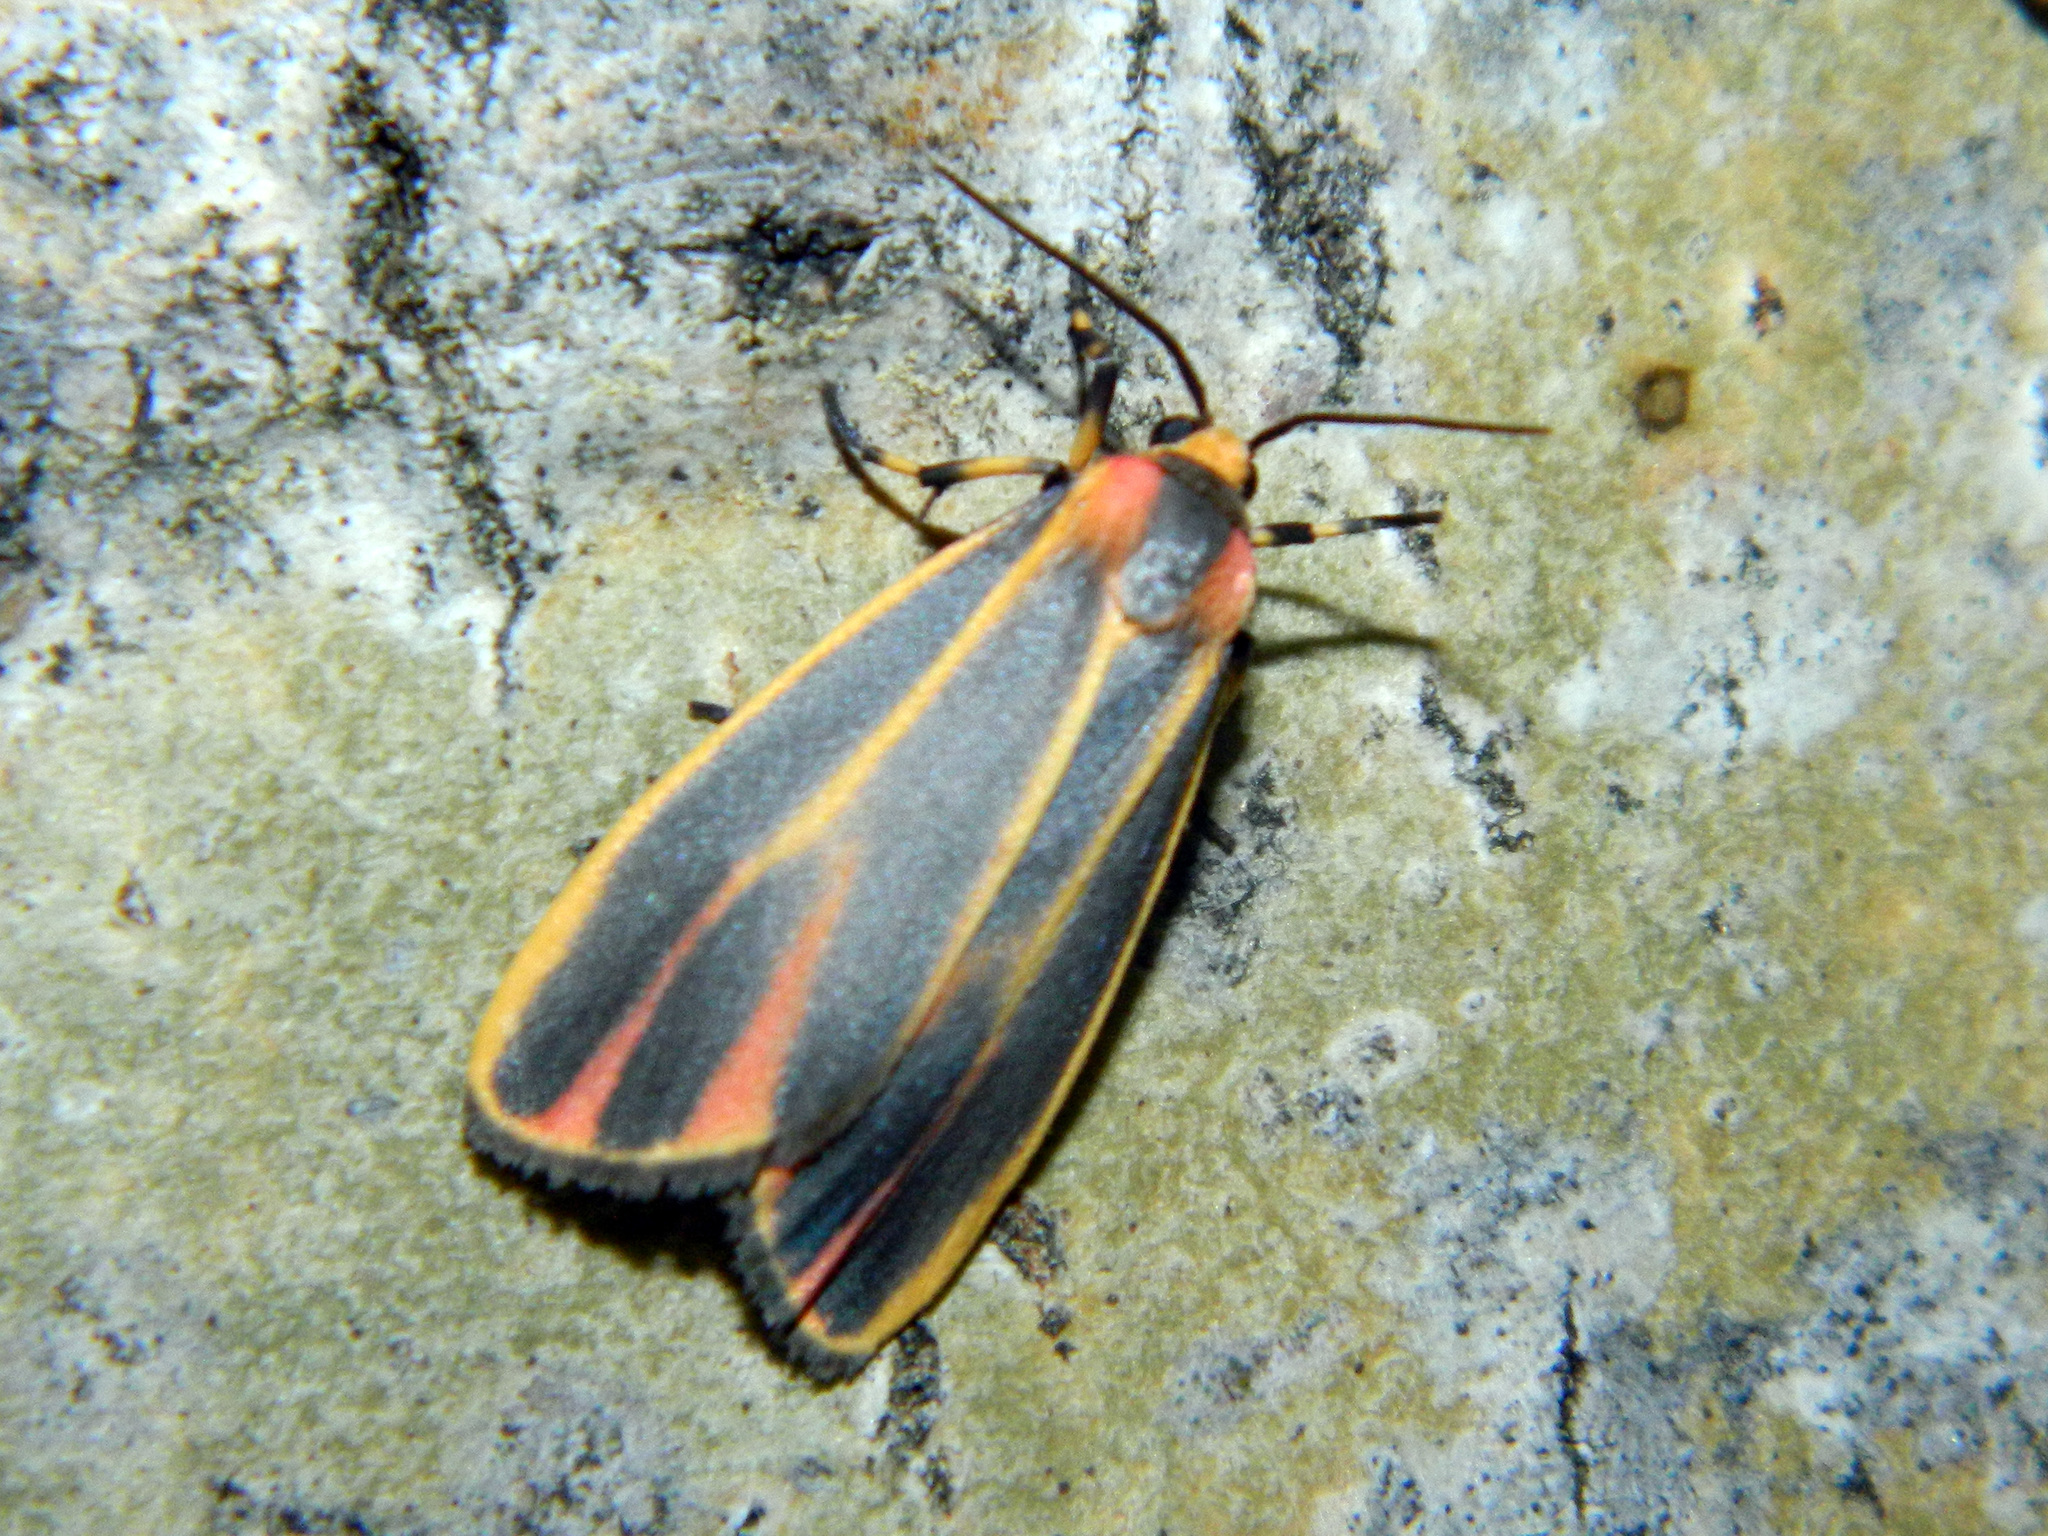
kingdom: Animalia
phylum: Arthropoda
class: Insecta
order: Lepidoptera
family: Erebidae
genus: Hypoprepia
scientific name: Hypoprepia fucosa
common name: Painted lichen moth
